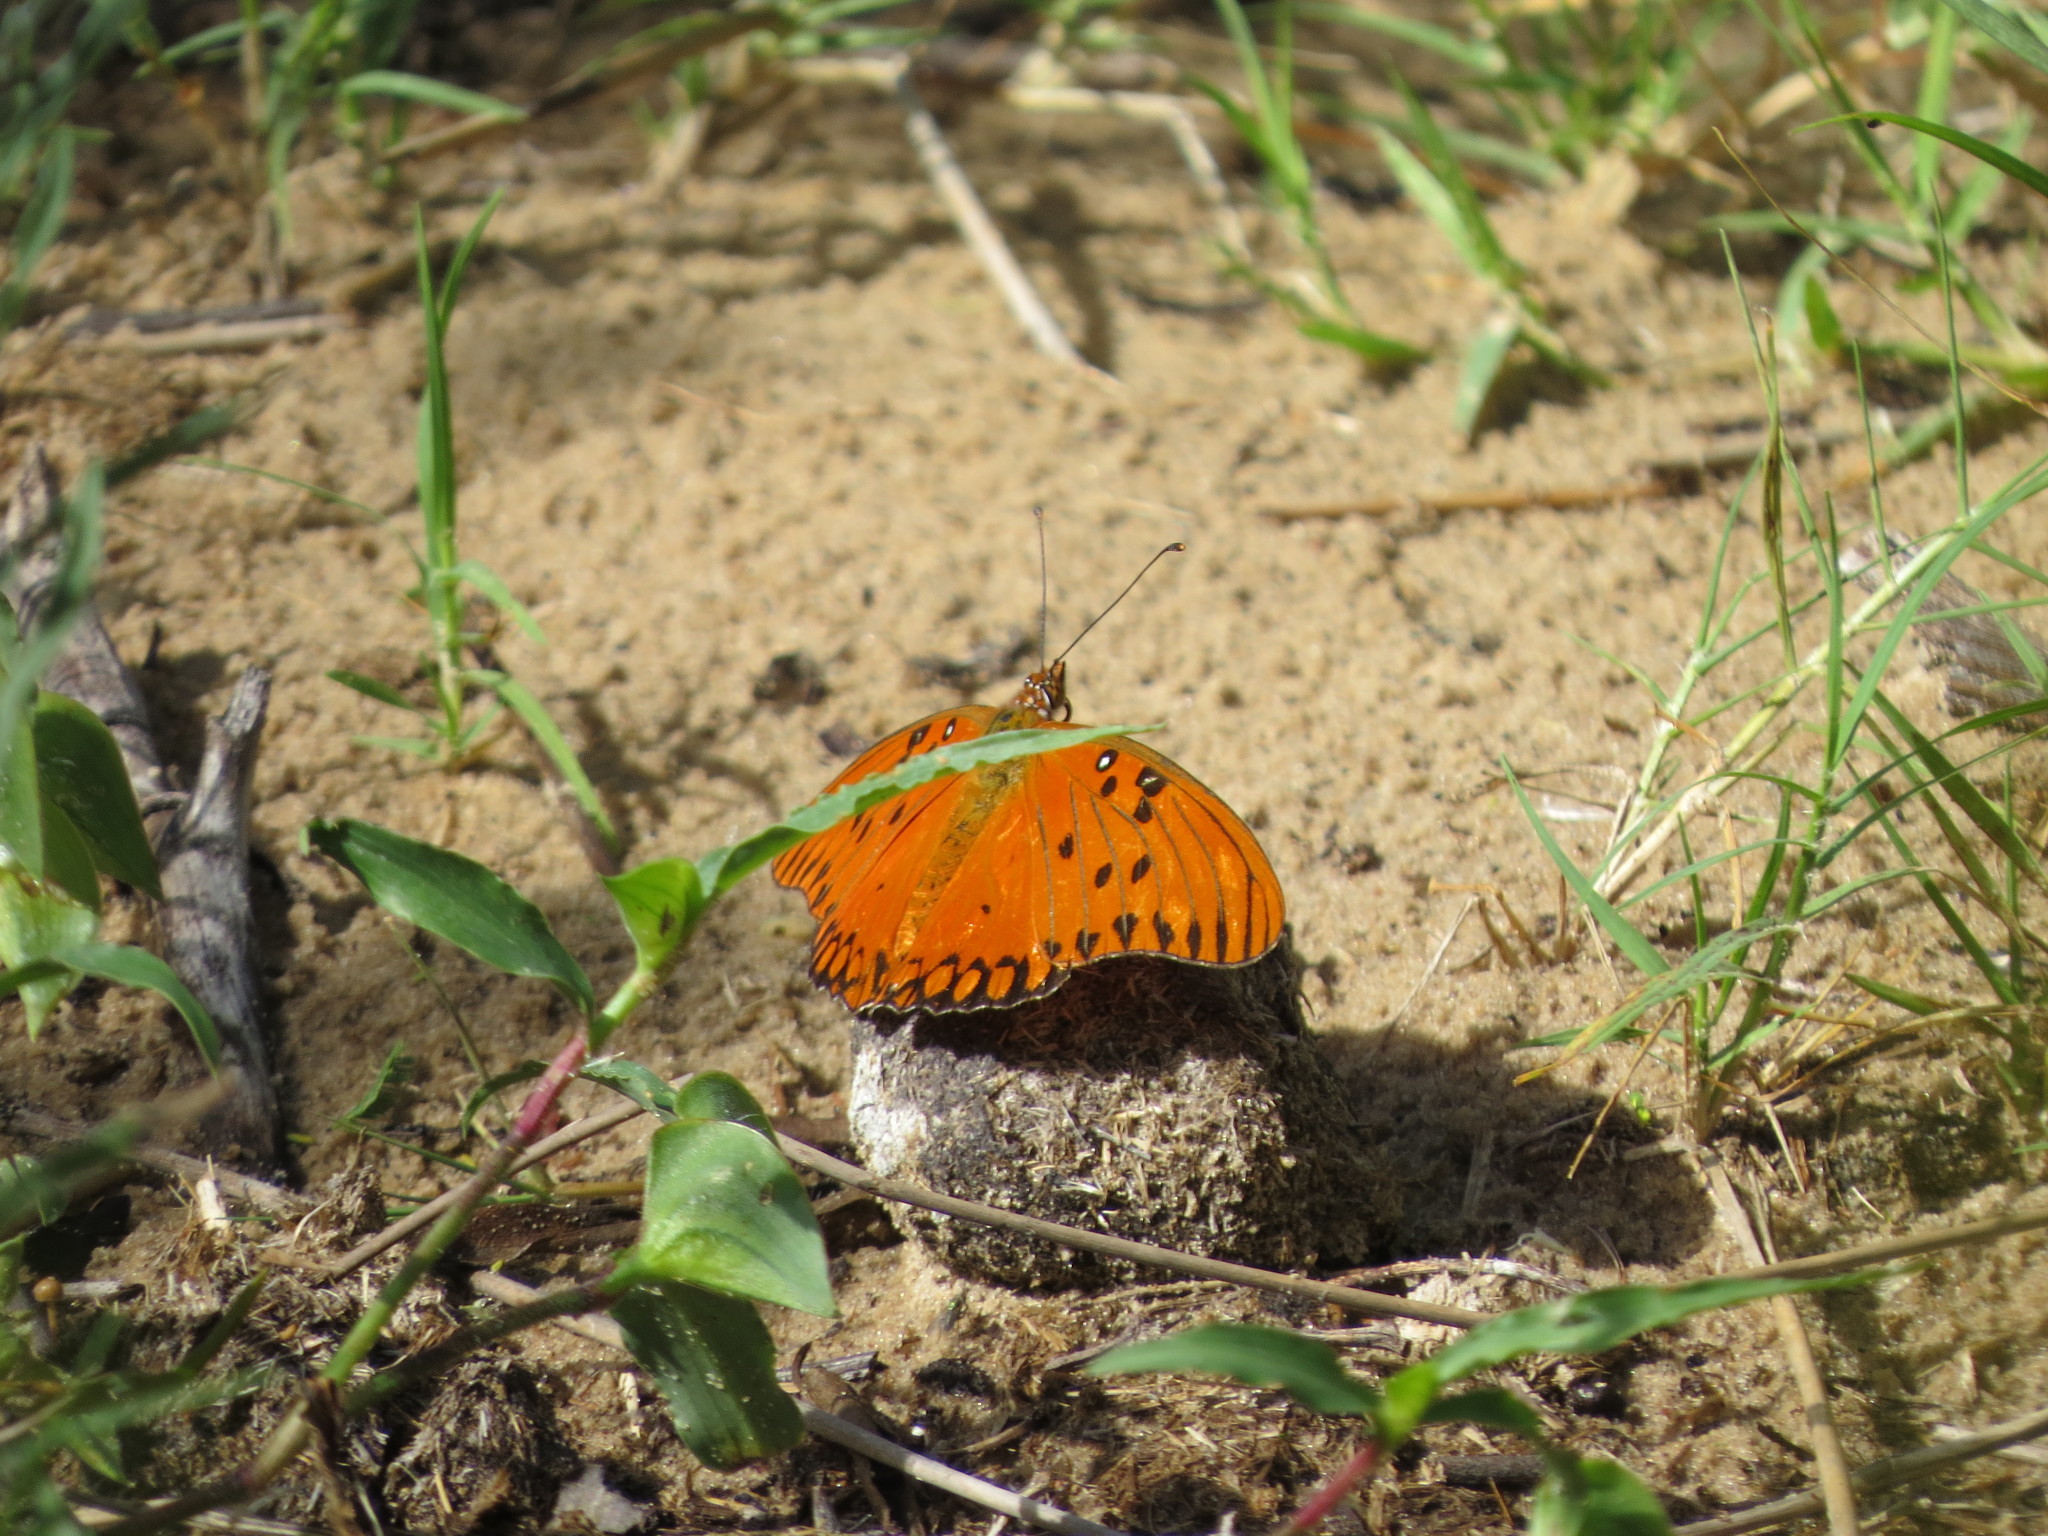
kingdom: Animalia
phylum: Arthropoda
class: Insecta
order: Lepidoptera
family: Nymphalidae
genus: Dione
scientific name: Dione vanillae
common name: Gulf fritillary
